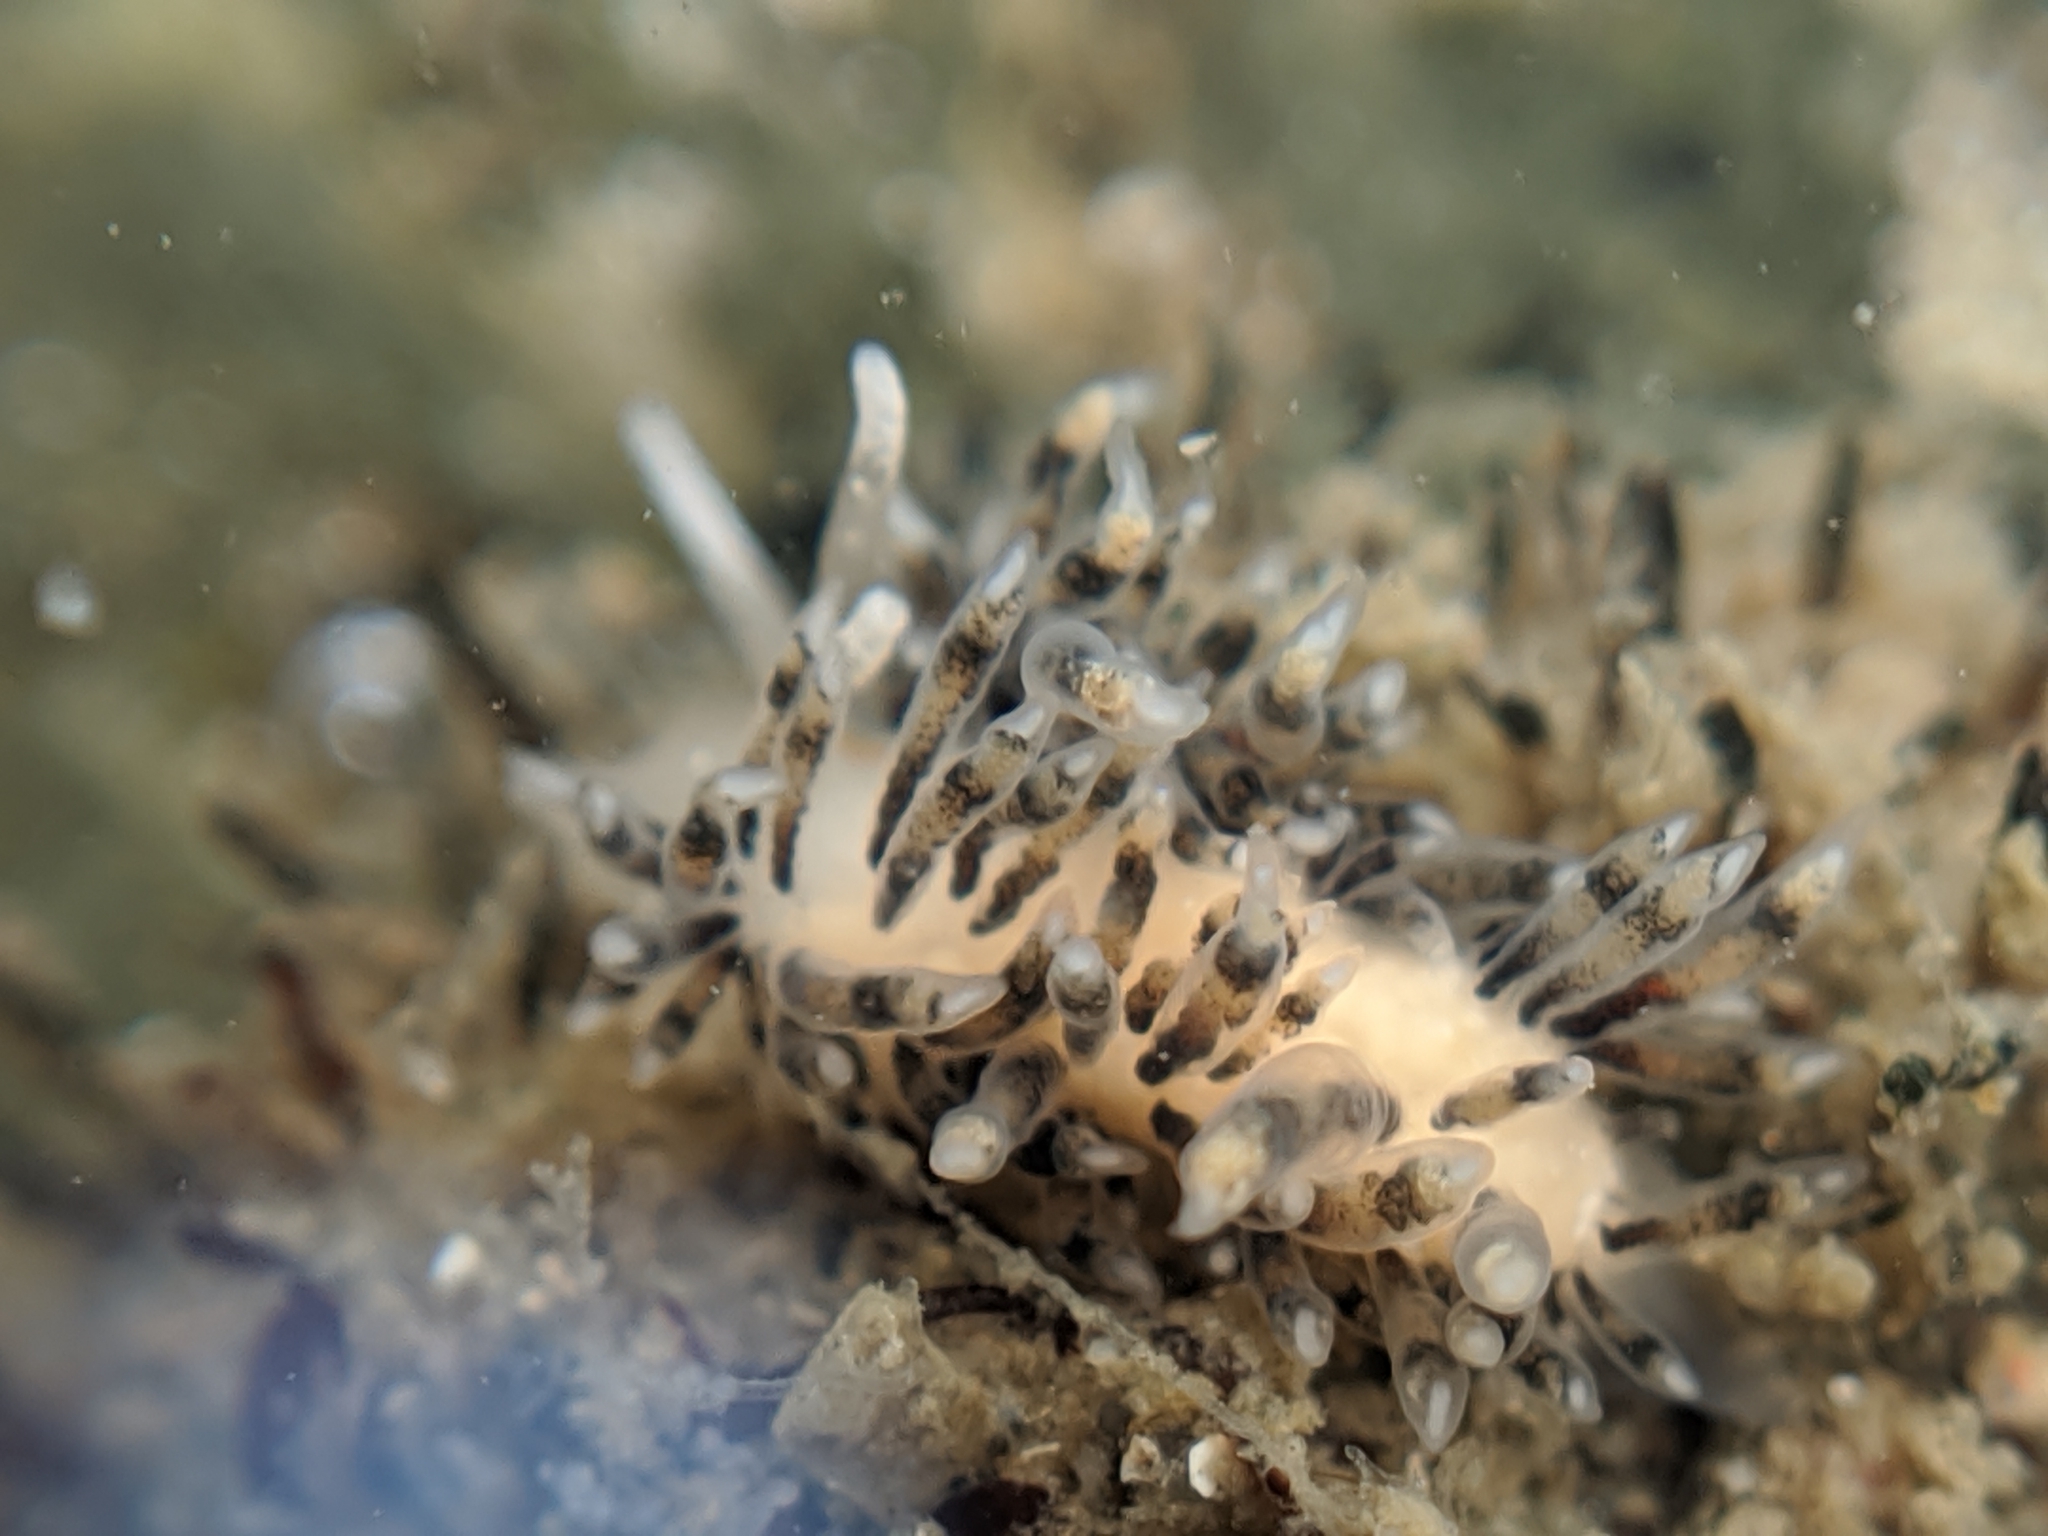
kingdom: Animalia
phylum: Mollusca
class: Gastropoda
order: Nudibranchia
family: Facelinidae
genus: Emarcusia
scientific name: Emarcusia morroensis
